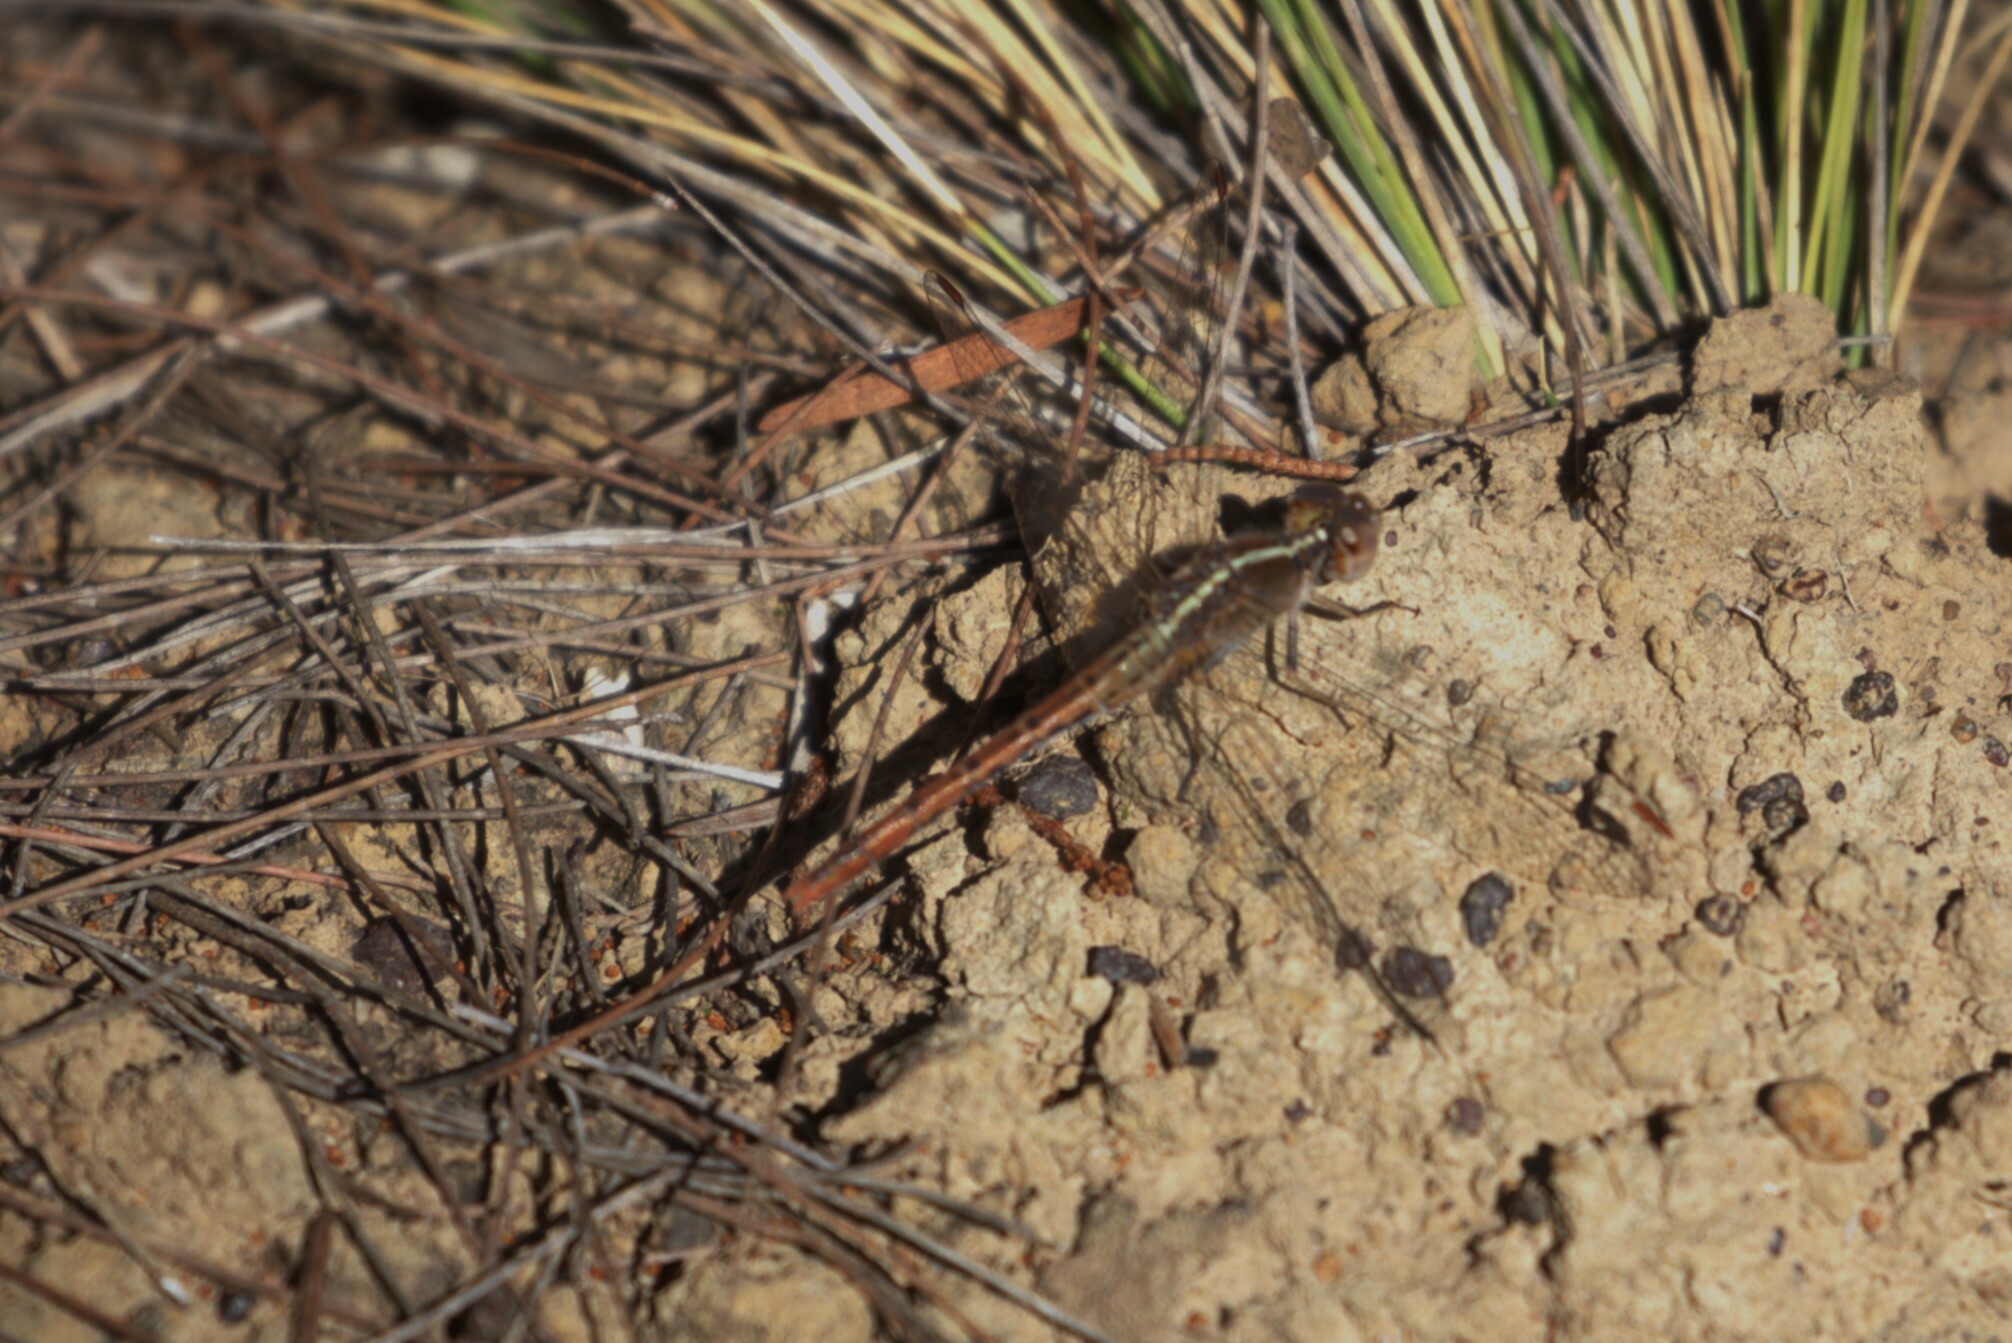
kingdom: Animalia
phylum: Arthropoda
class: Insecta
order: Odonata
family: Libellulidae
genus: Diplacodes
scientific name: Diplacodes bipunctata
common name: Red percher dragonfly
